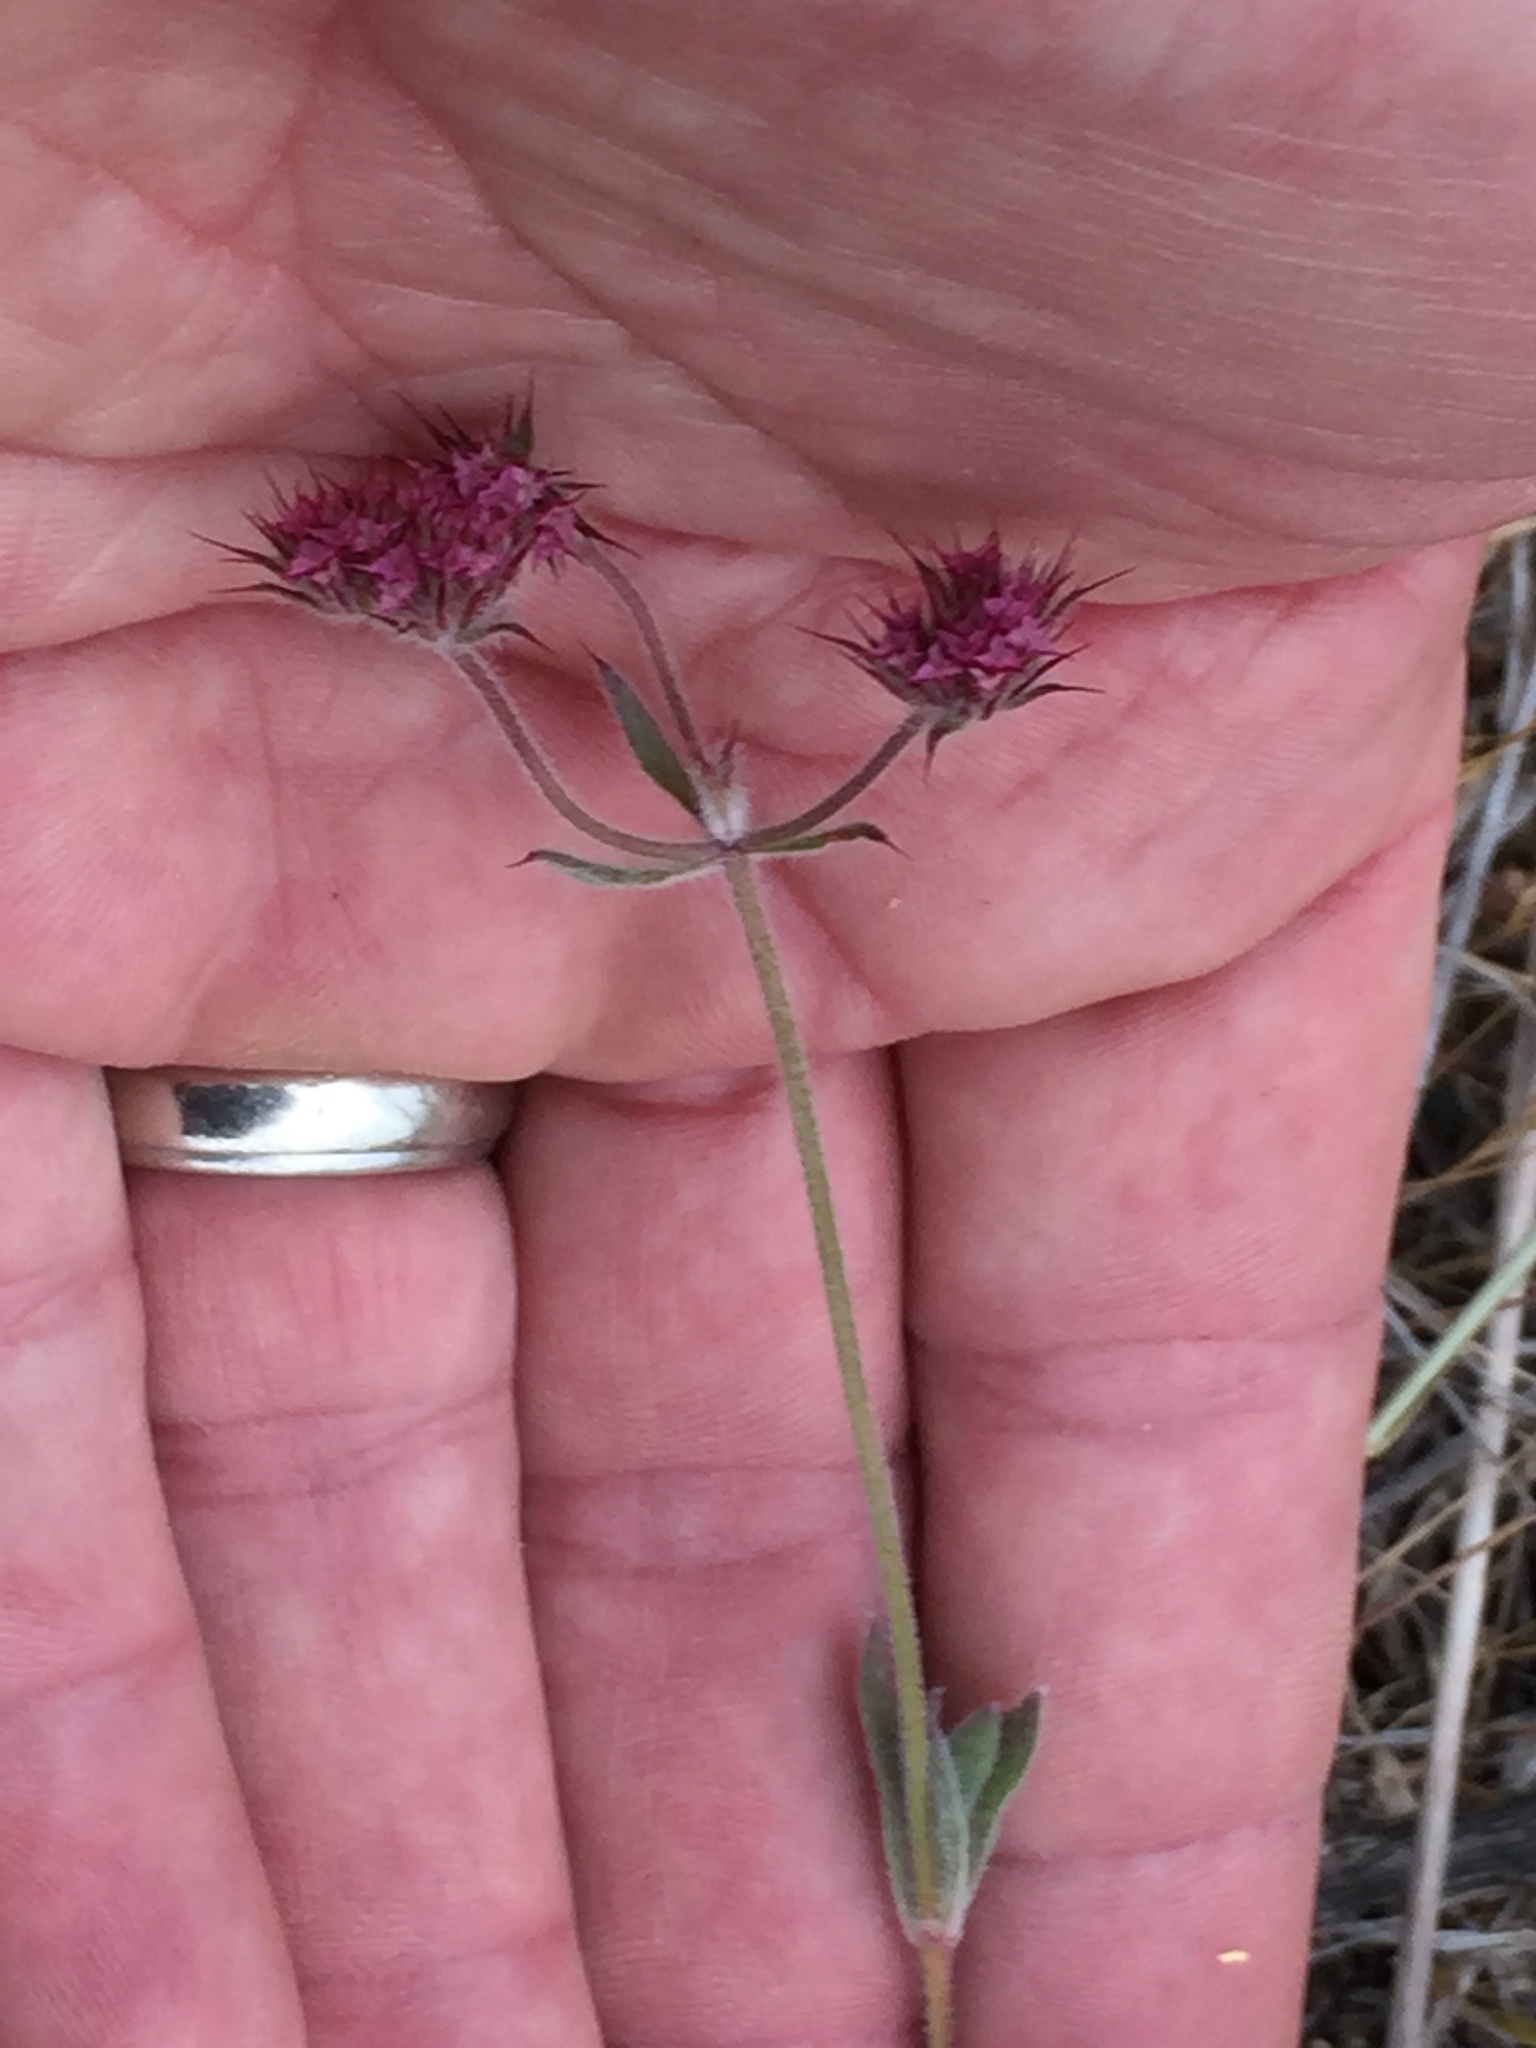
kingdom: Plantae
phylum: Tracheophyta
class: Magnoliopsida
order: Caryophyllales
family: Polygonaceae
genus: Chorizanthe
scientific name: Chorizanthe douglasii
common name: Douglas's spineflower
